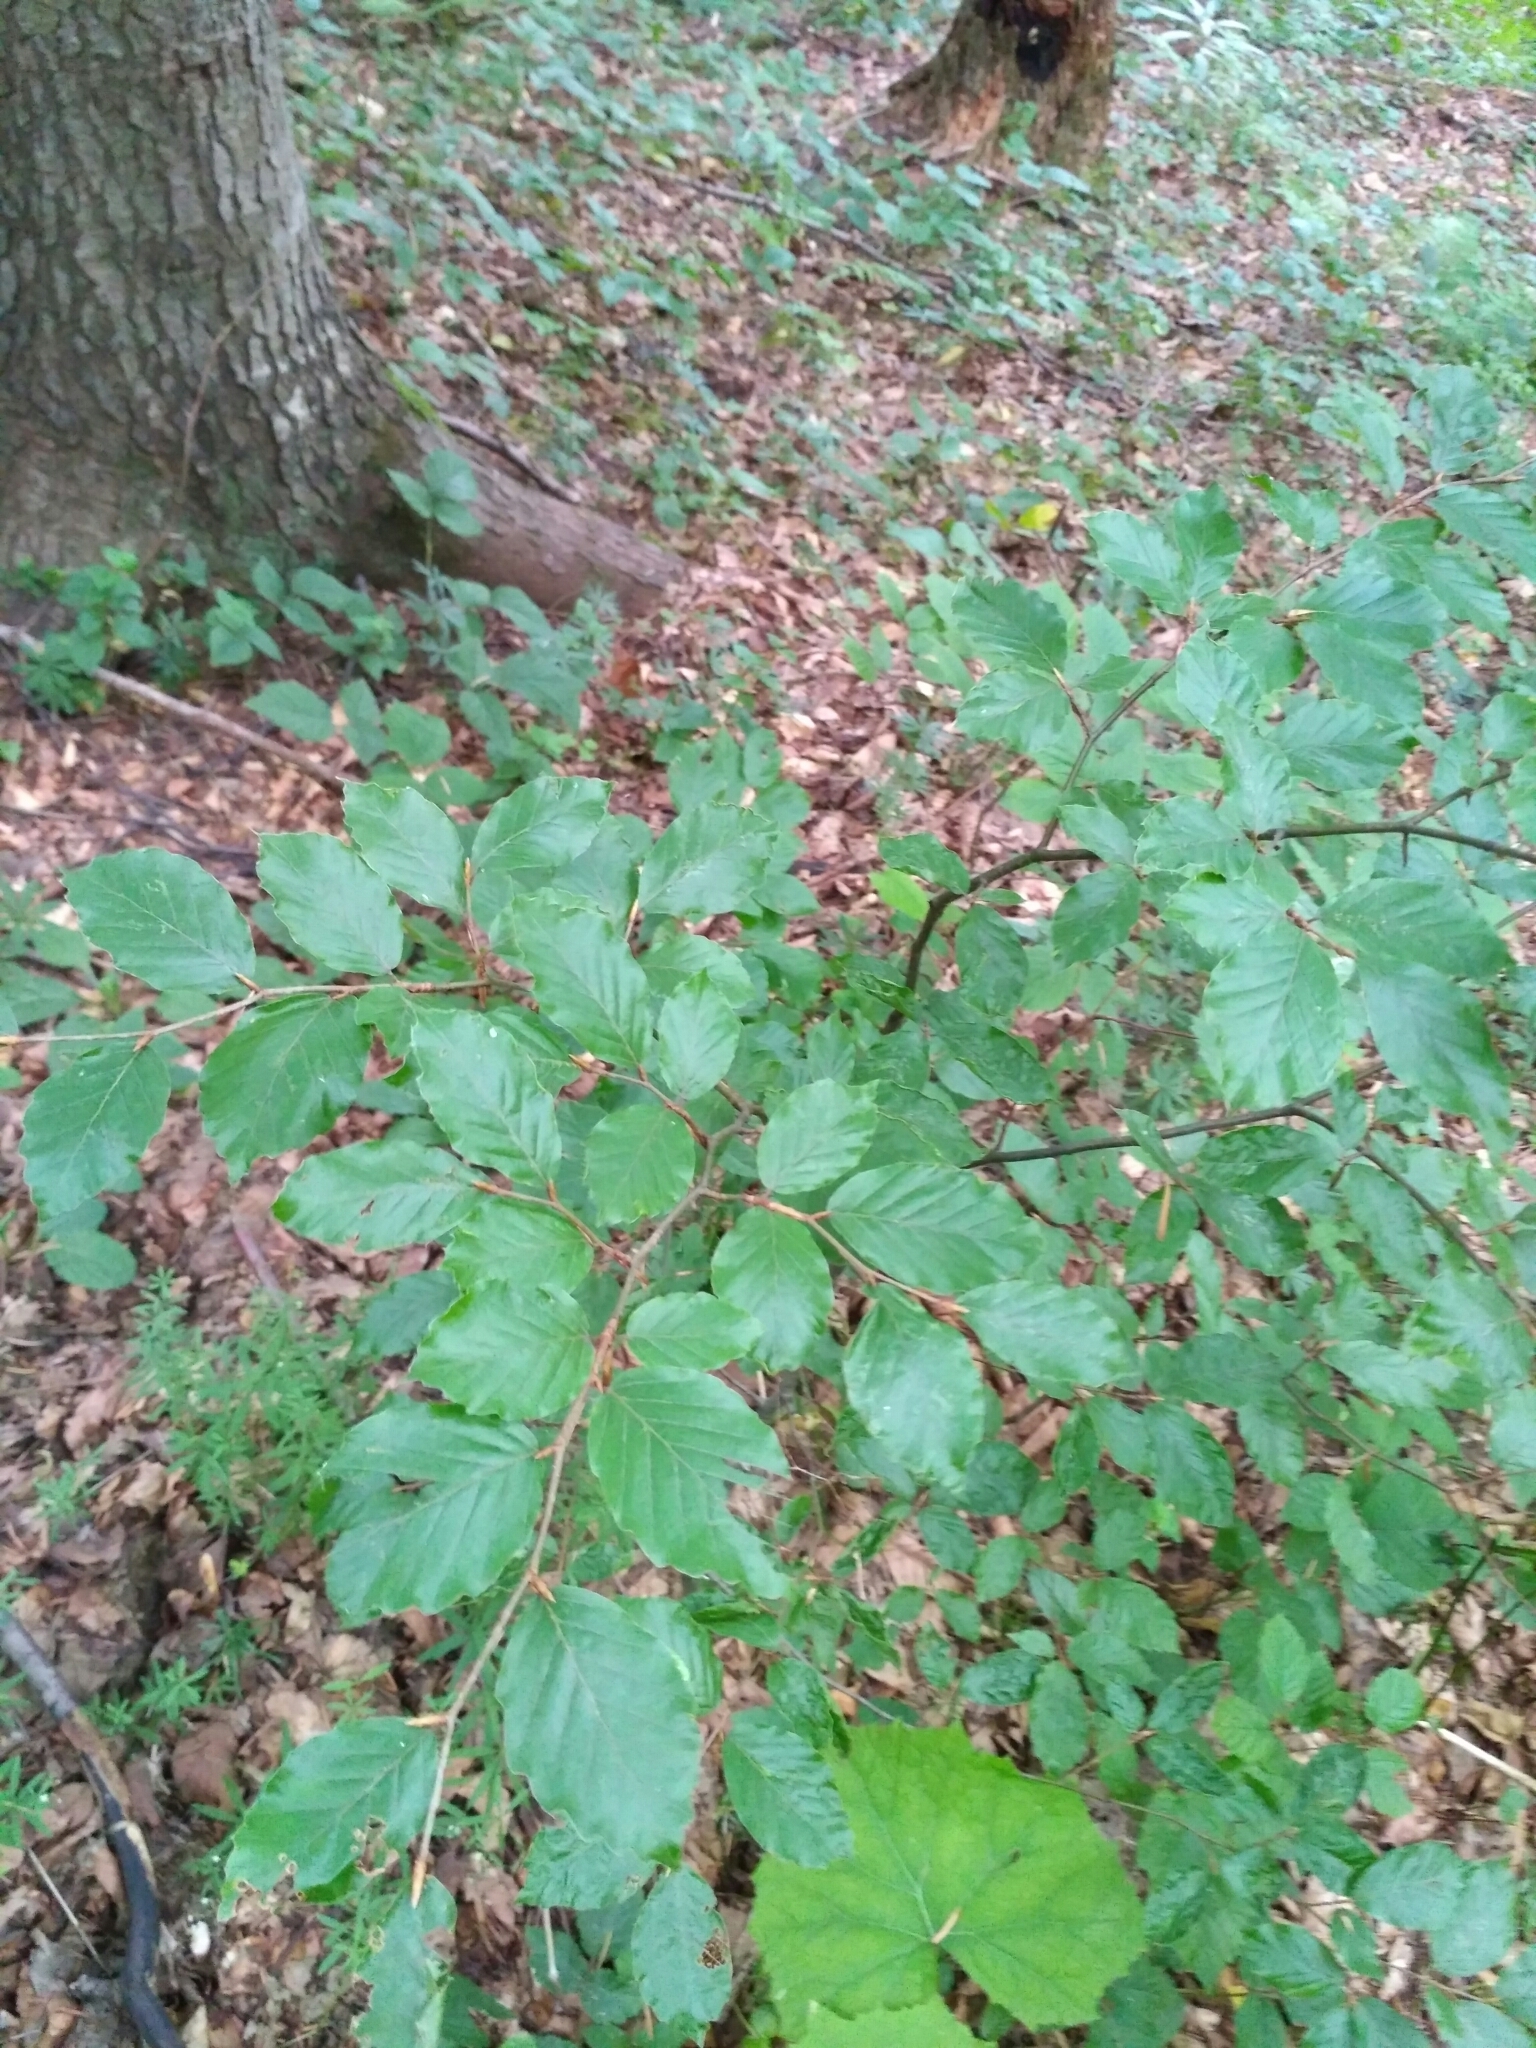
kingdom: Plantae
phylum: Tracheophyta
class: Magnoliopsida
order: Fagales
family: Fagaceae
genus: Fagus
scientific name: Fagus sylvatica
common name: Beech
